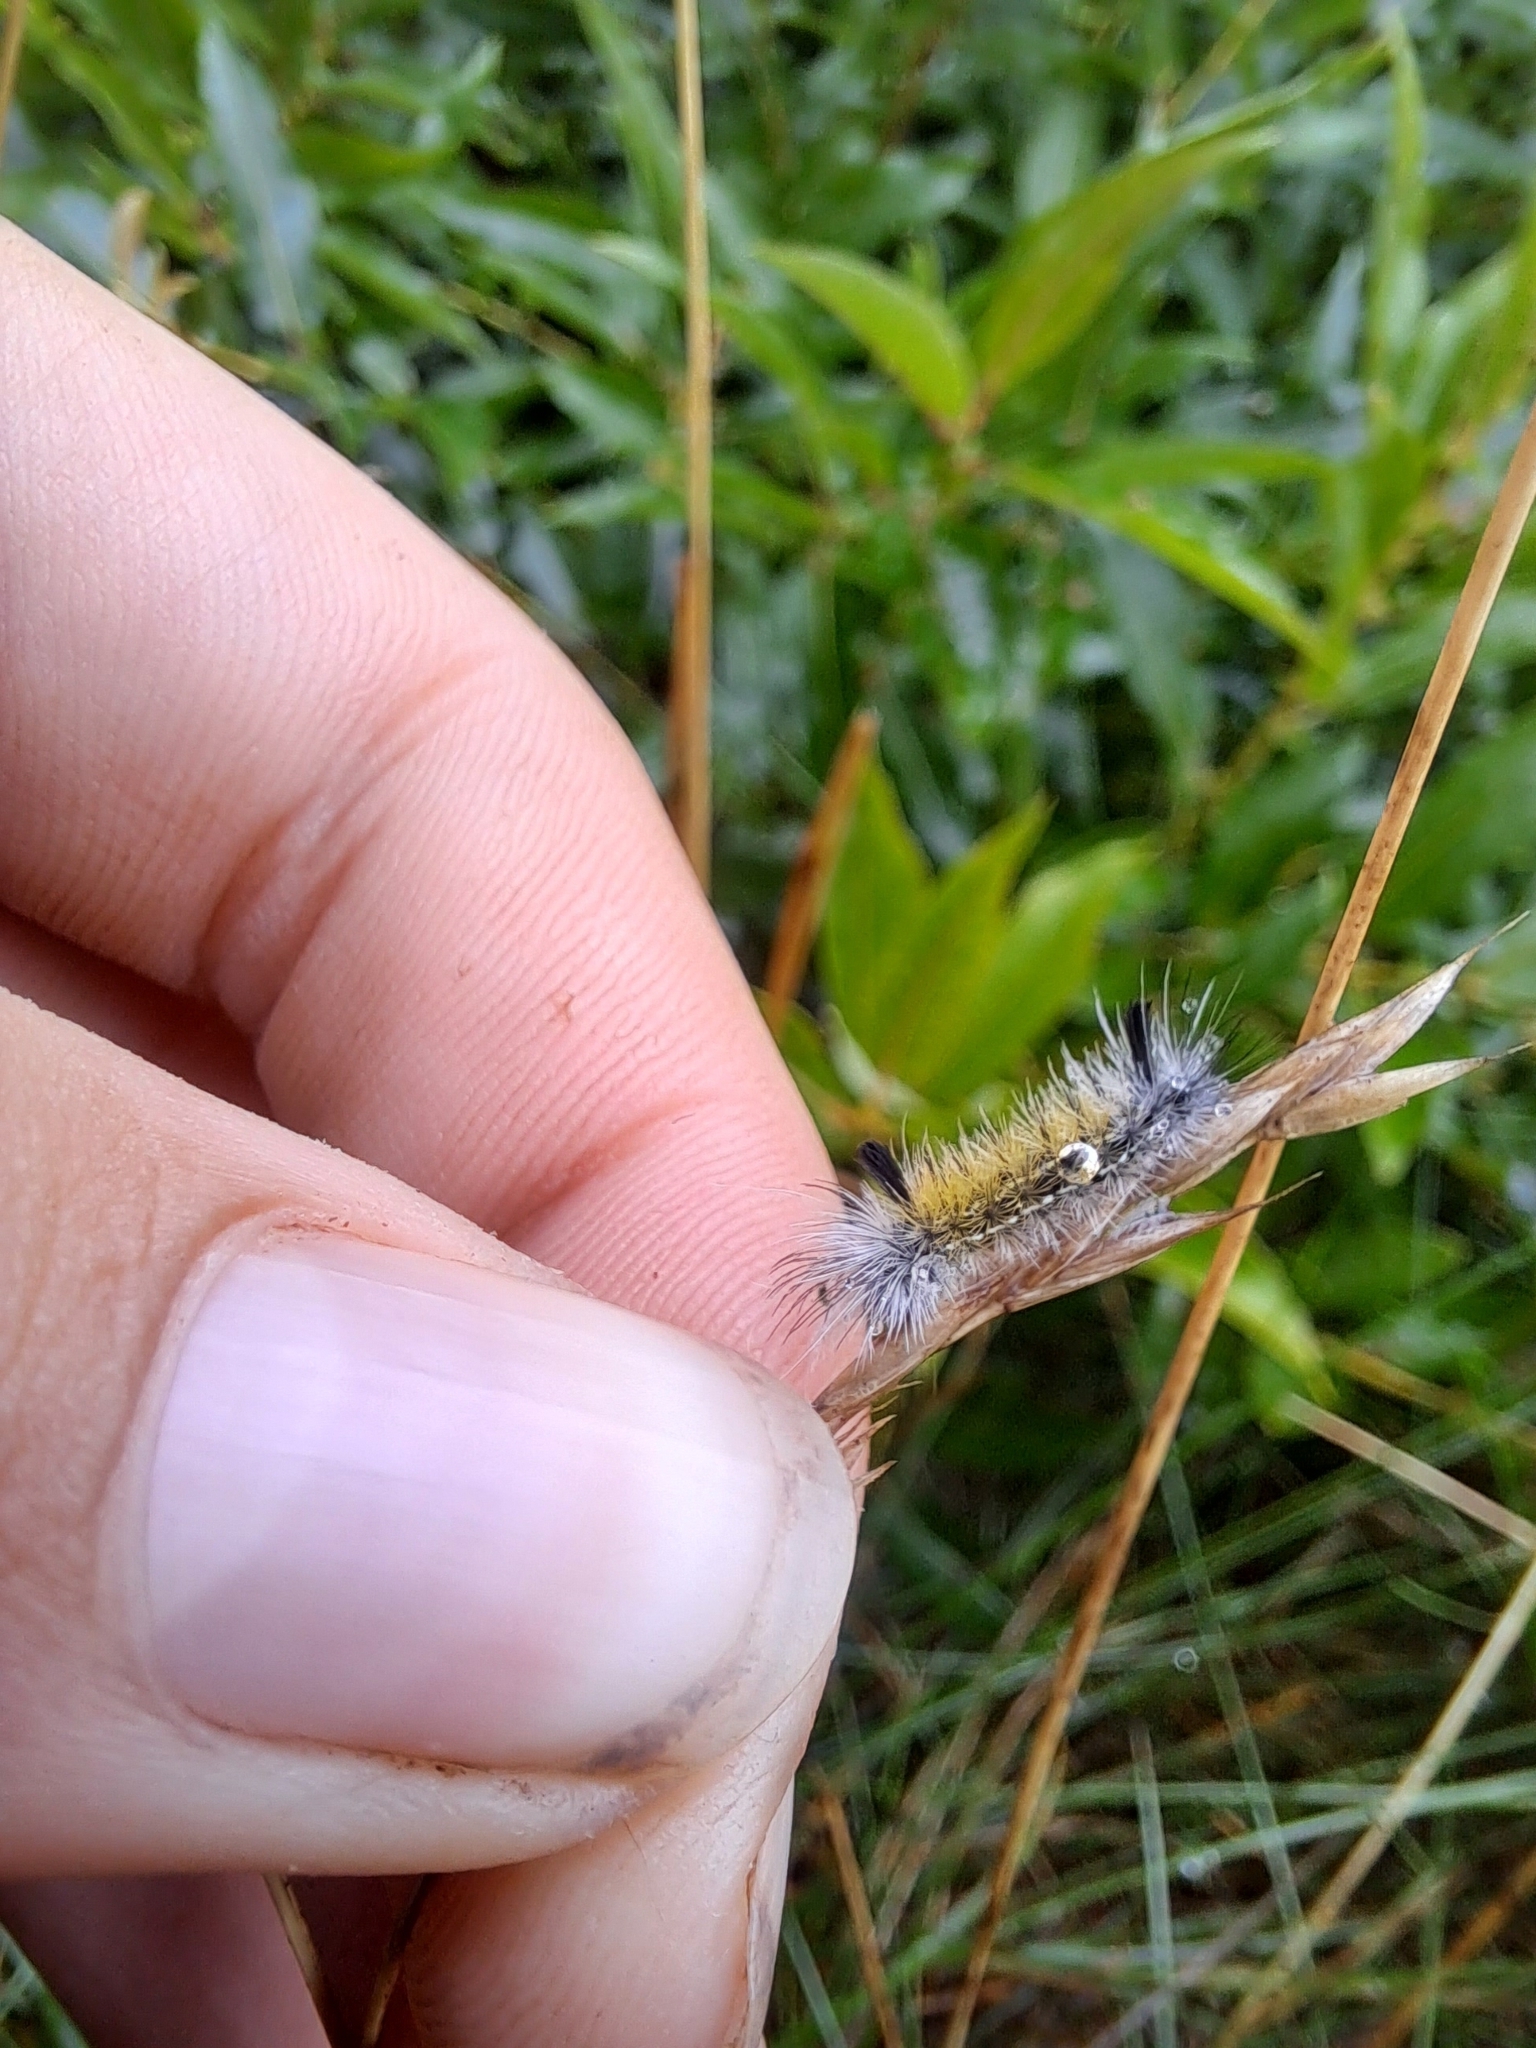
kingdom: Animalia
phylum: Arthropoda
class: Insecta
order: Lepidoptera
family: Erebidae
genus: Ctenucha
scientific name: Ctenucha virginica
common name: Virginia ctenucha moth
